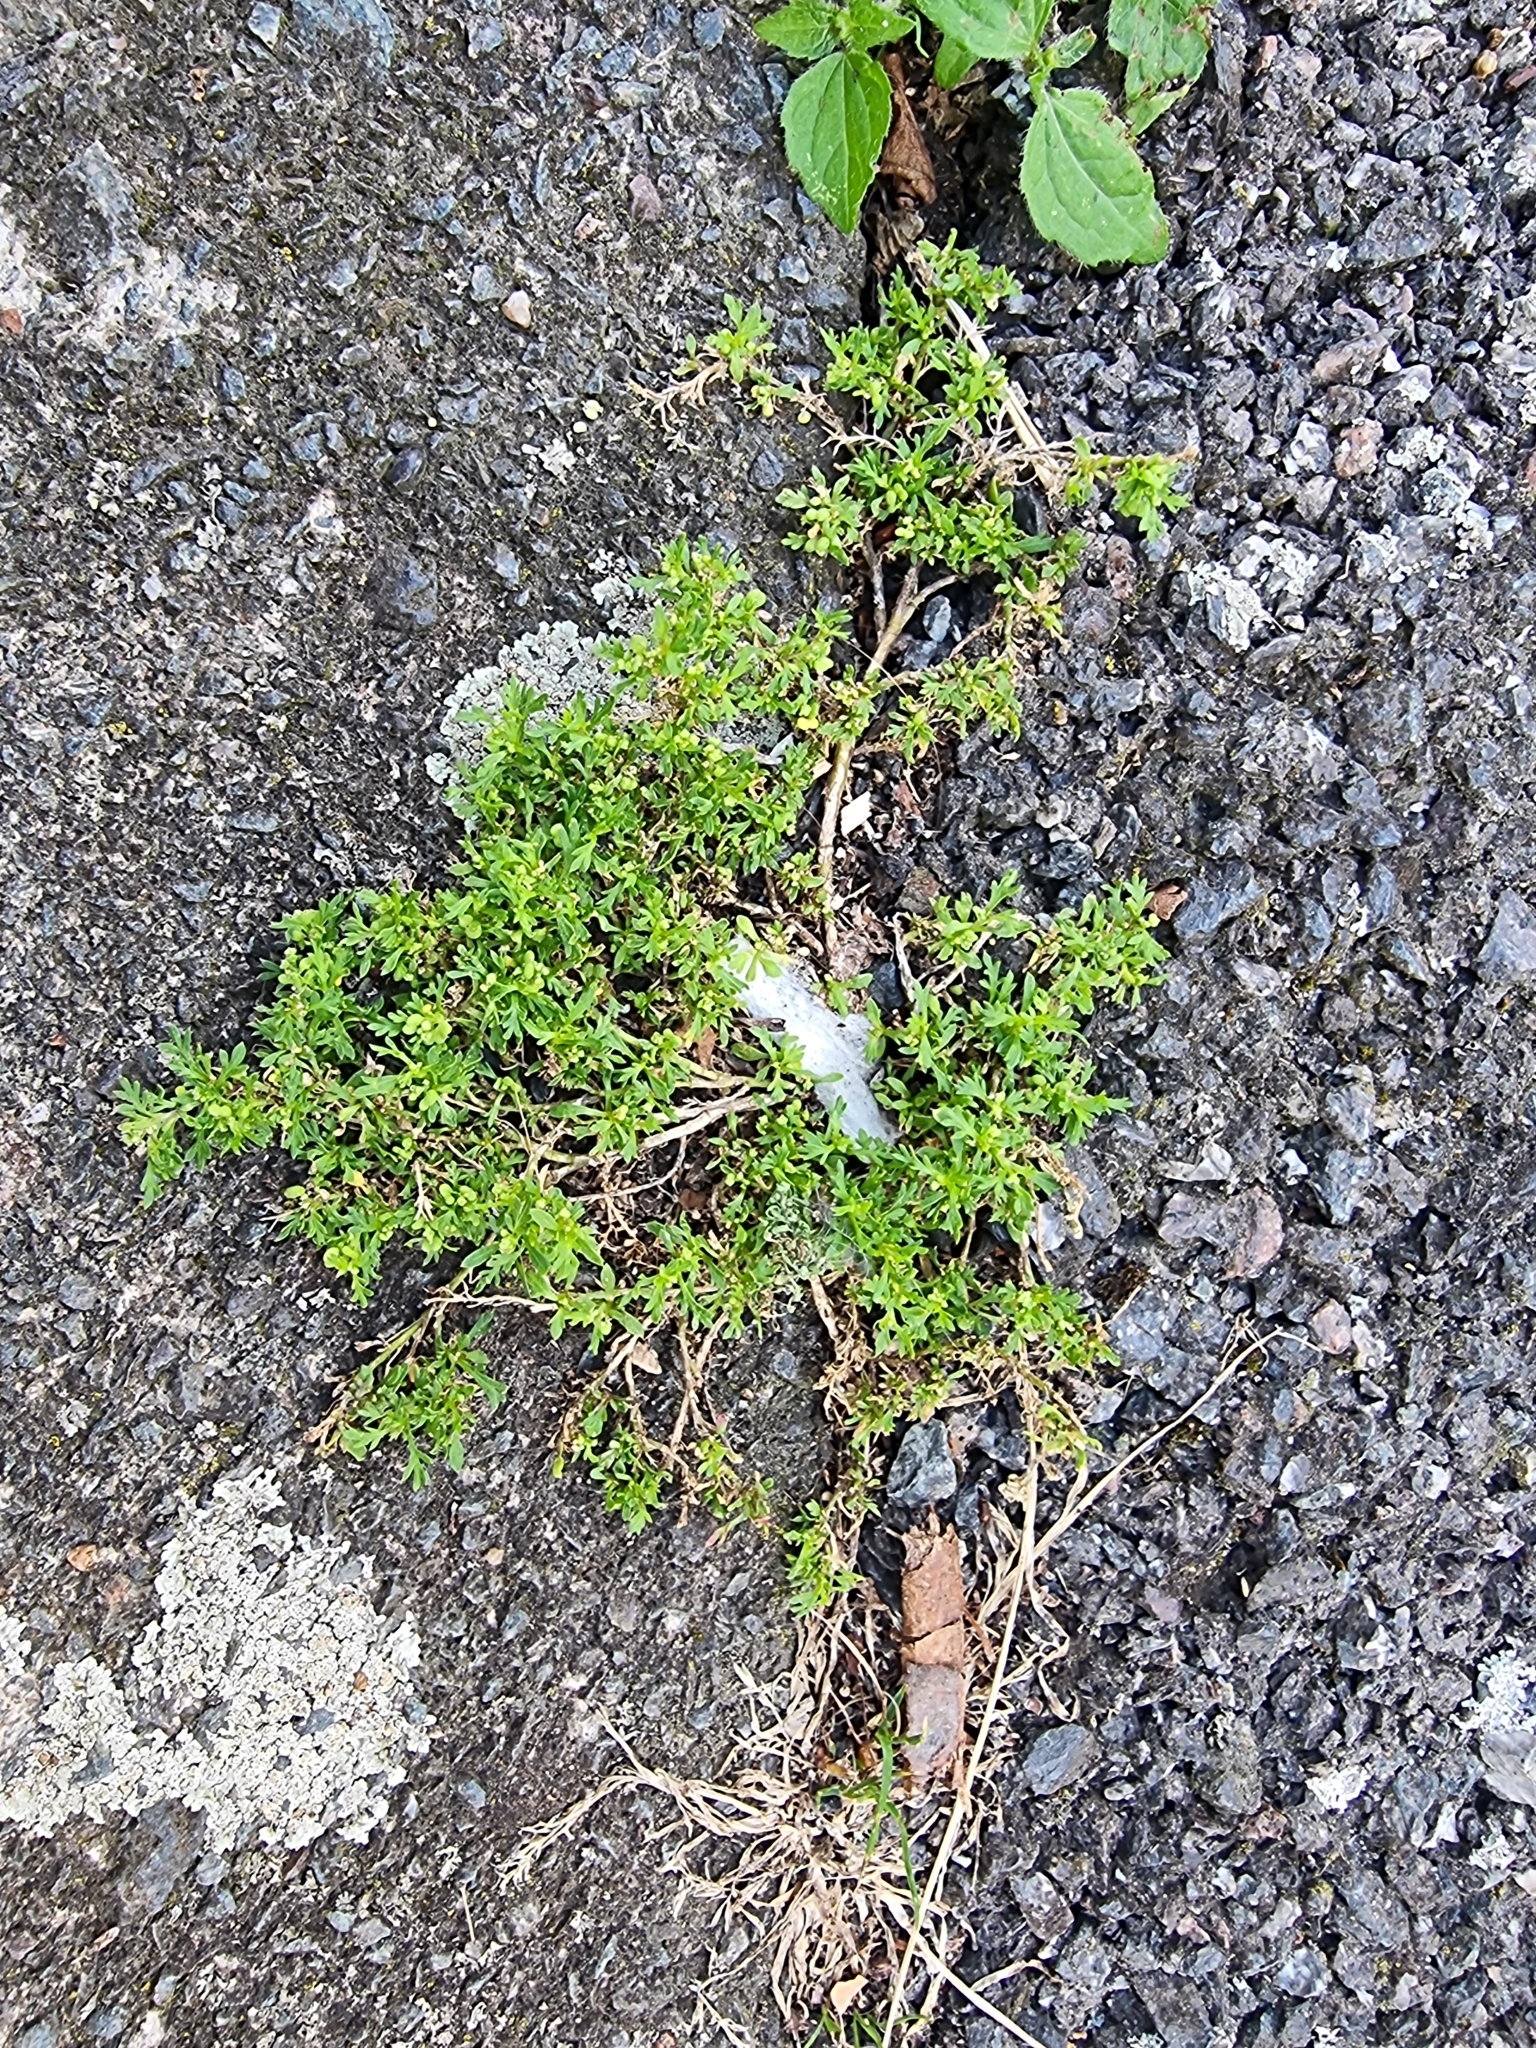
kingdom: Plantae
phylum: Tracheophyta
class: Magnoliopsida
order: Brassicales
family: Brassicaceae
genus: Lepidium
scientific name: Lepidium didymum
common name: Lesser swinecress
